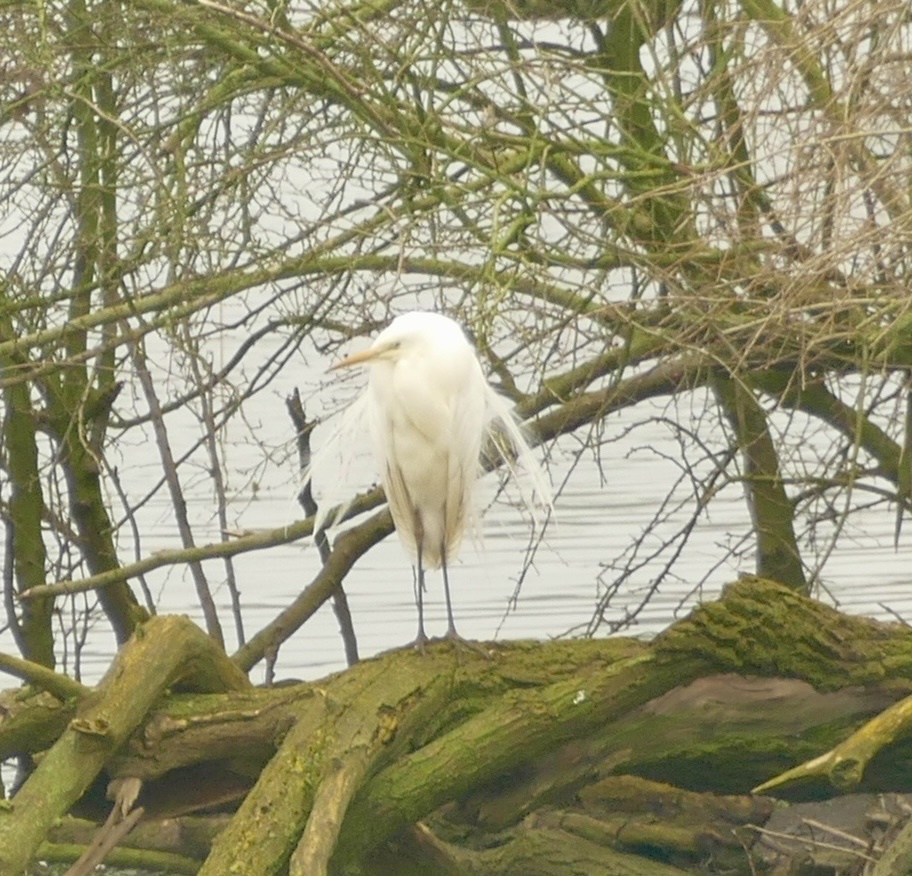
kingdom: Animalia
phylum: Chordata
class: Aves
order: Pelecaniformes
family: Ardeidae
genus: Ardea
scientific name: Ardea alba
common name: Great egret
